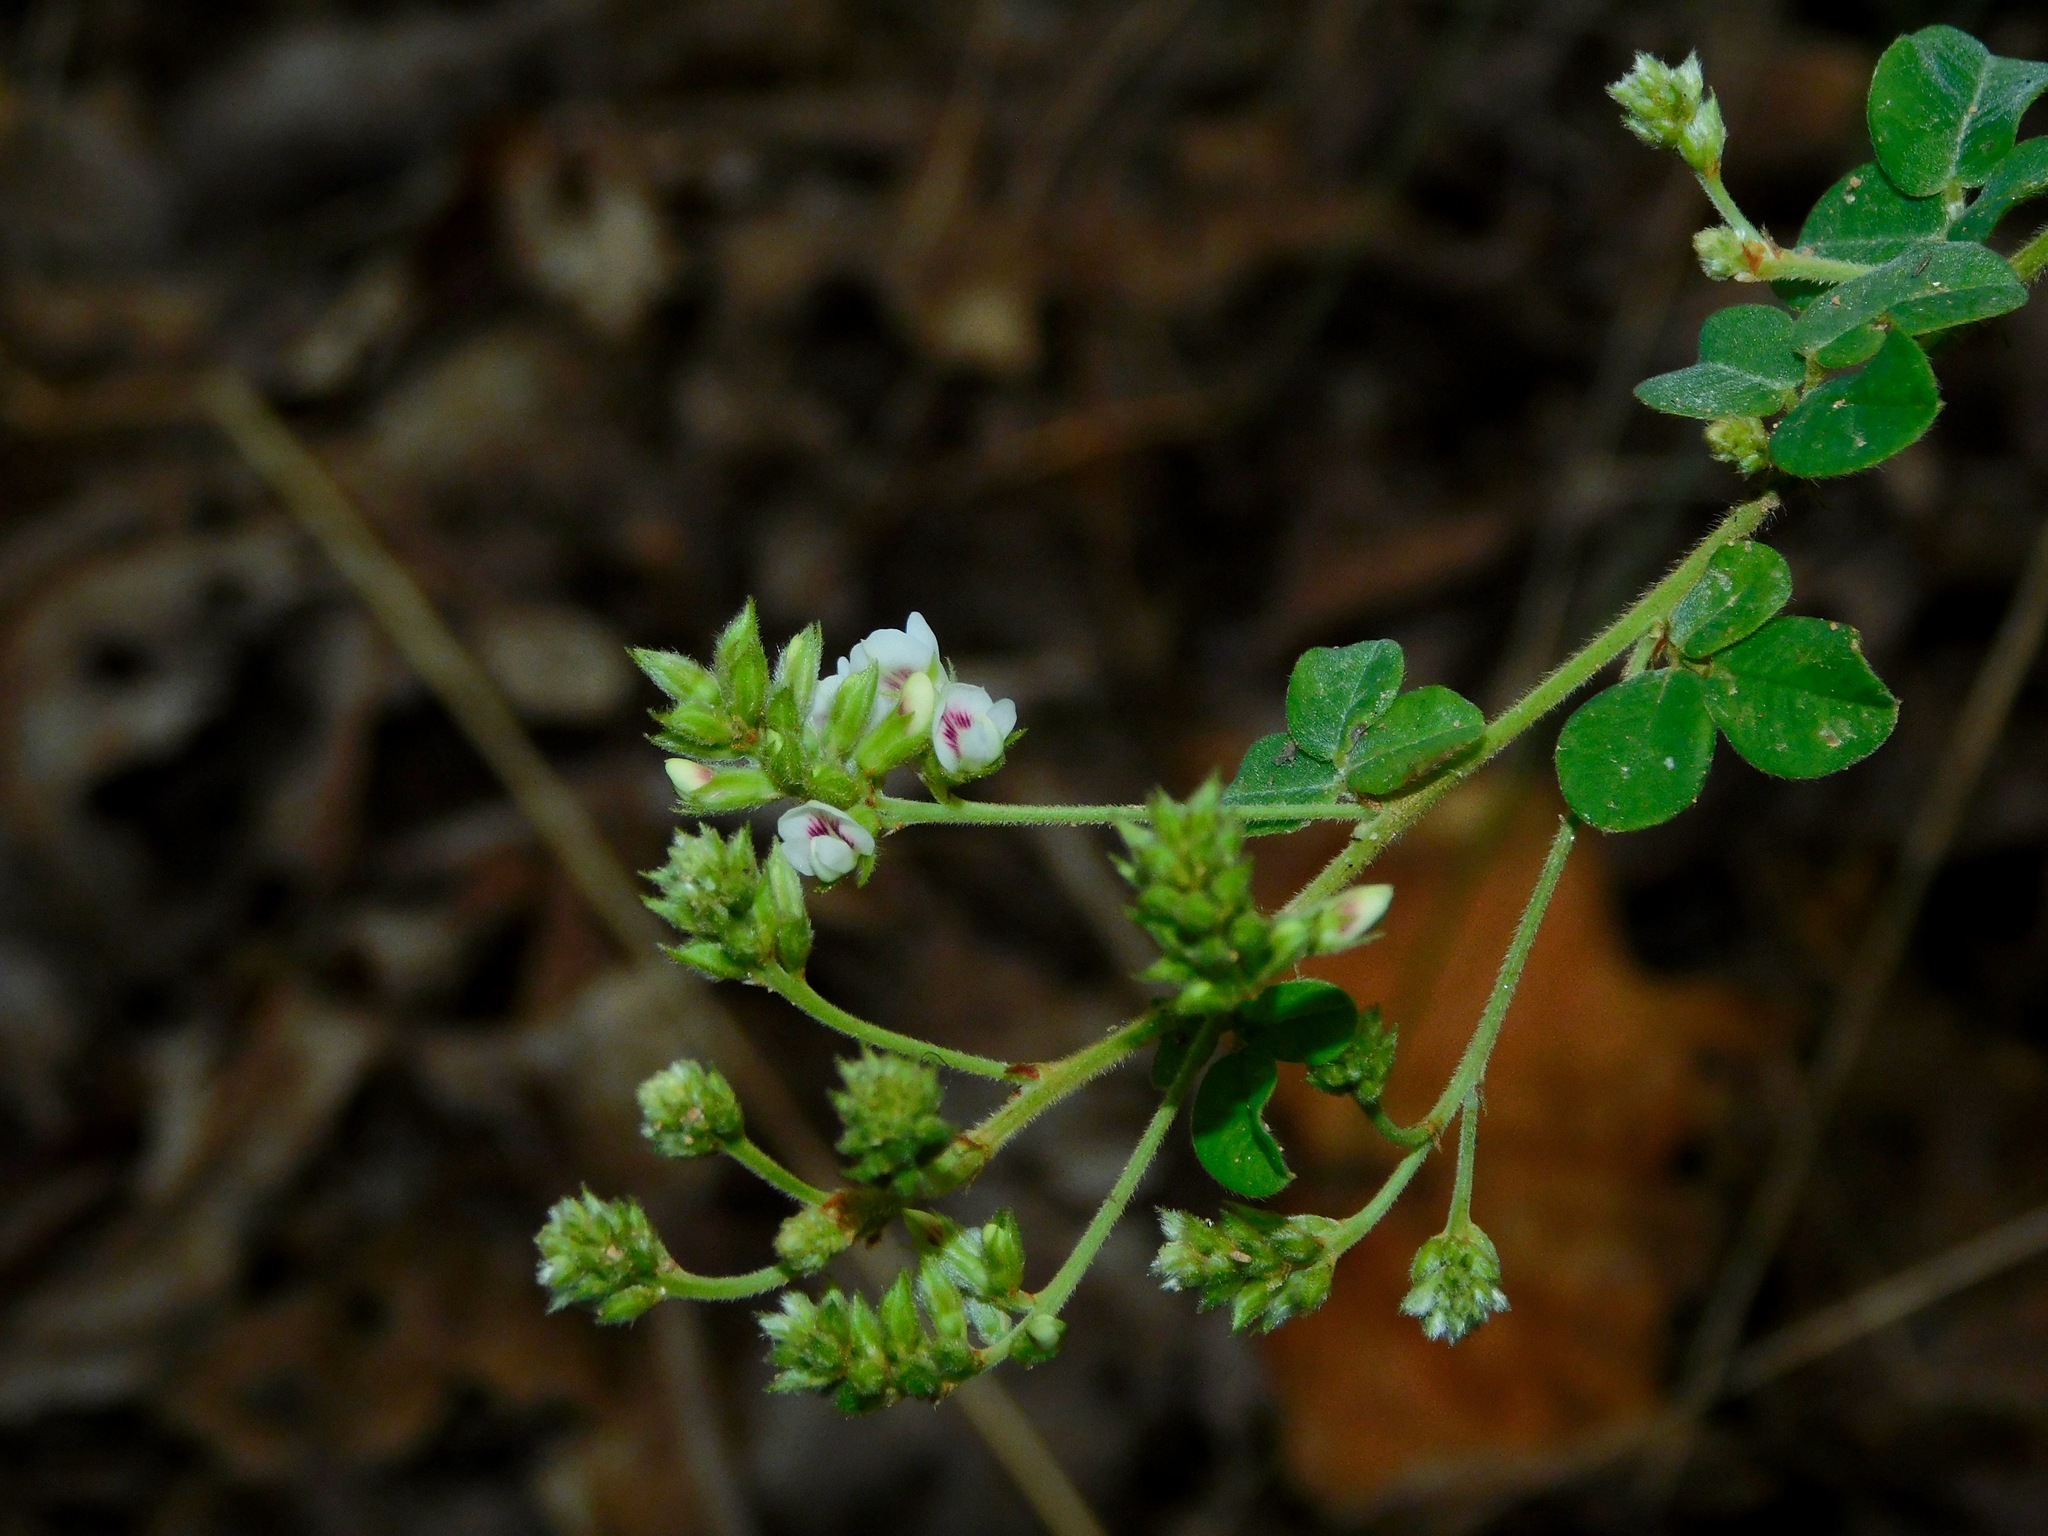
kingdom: Plantae
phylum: Tracheophyta
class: Magnoliopsida
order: Fabales
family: Fabaceae
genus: Lespedeza
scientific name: Lespedeza hirta
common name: Hairy lespedeza
